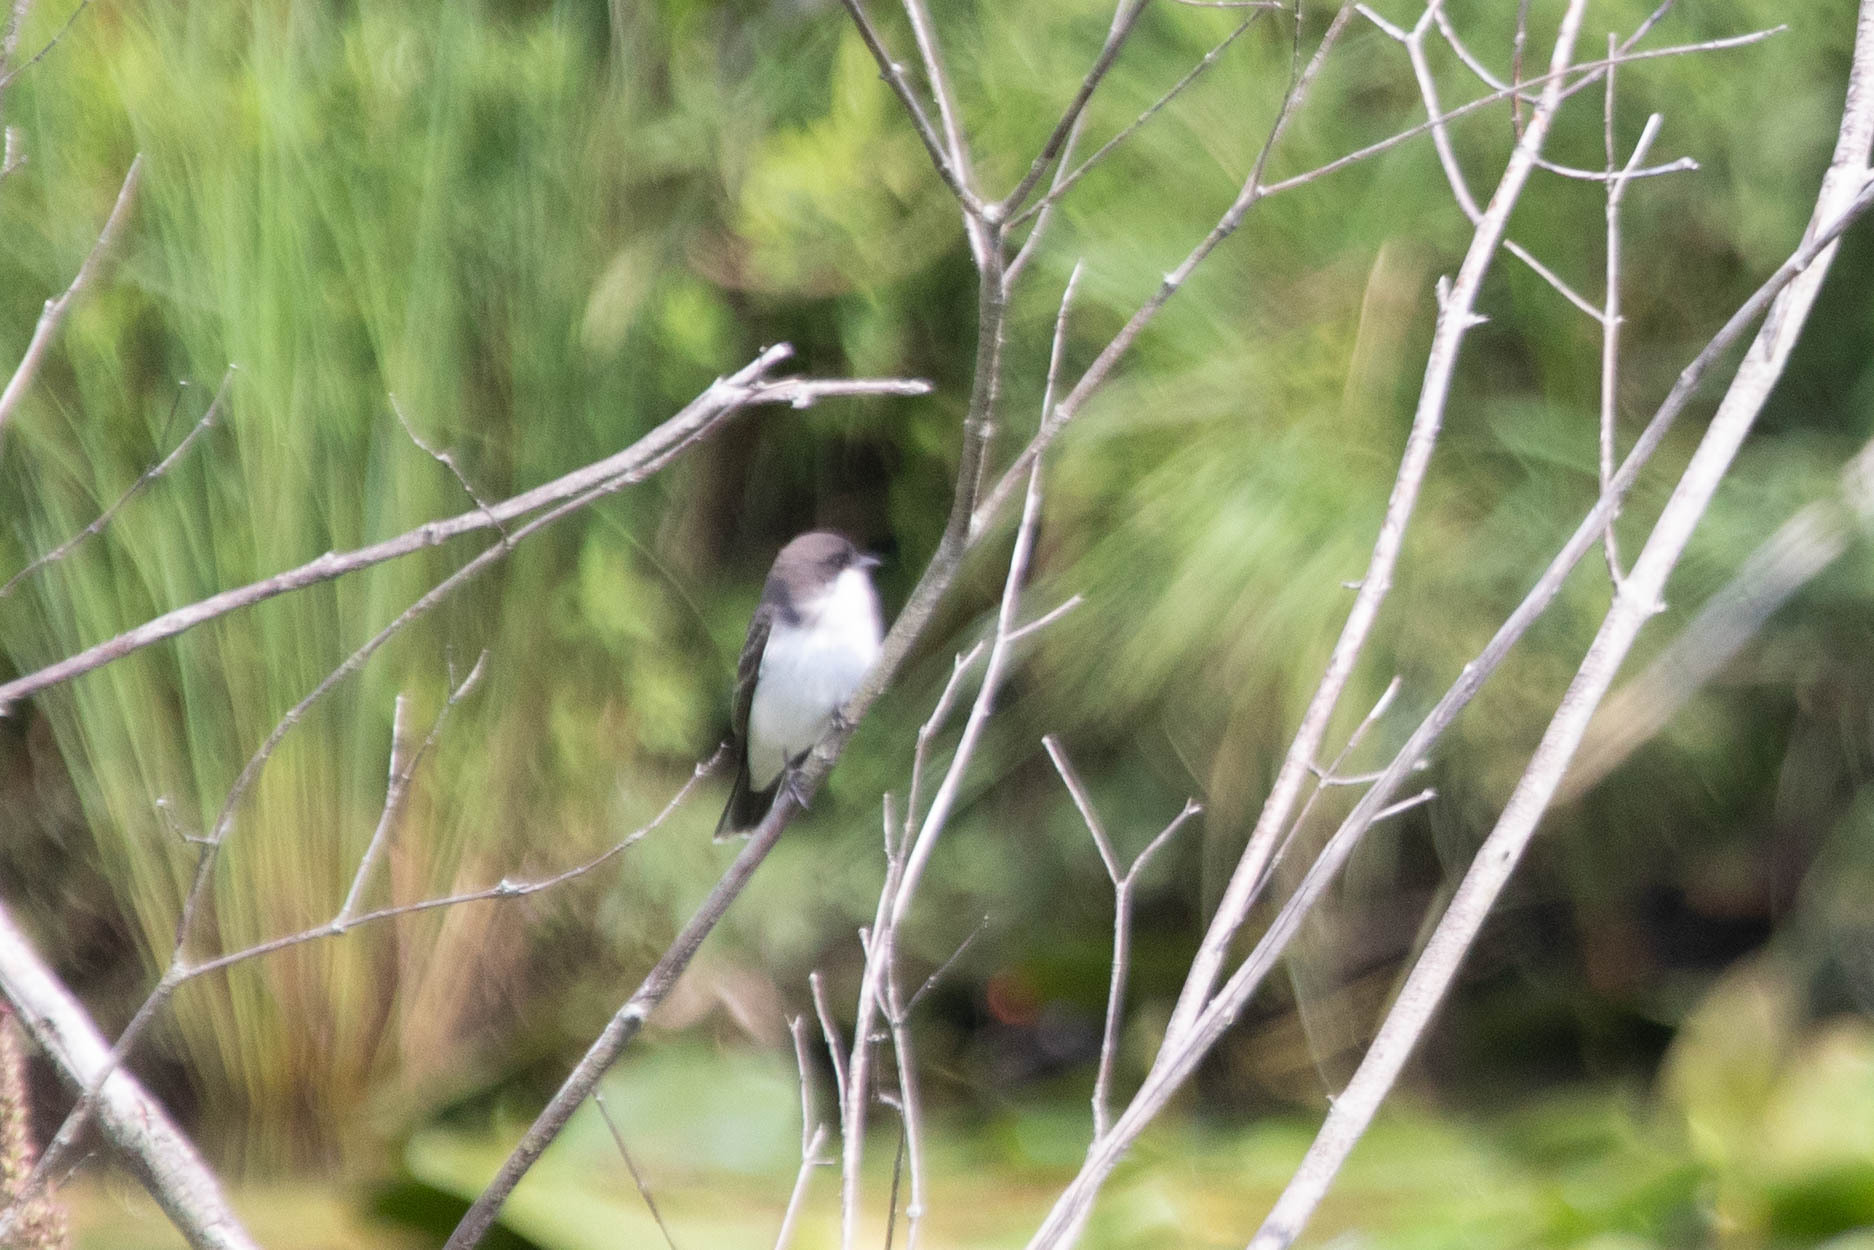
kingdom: Animalia
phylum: Chordata
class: Aves
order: Passeriformes
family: Tyrannidae
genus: Tyrannus
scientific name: Tyrannus tyrannus
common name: Eastern kingbird
